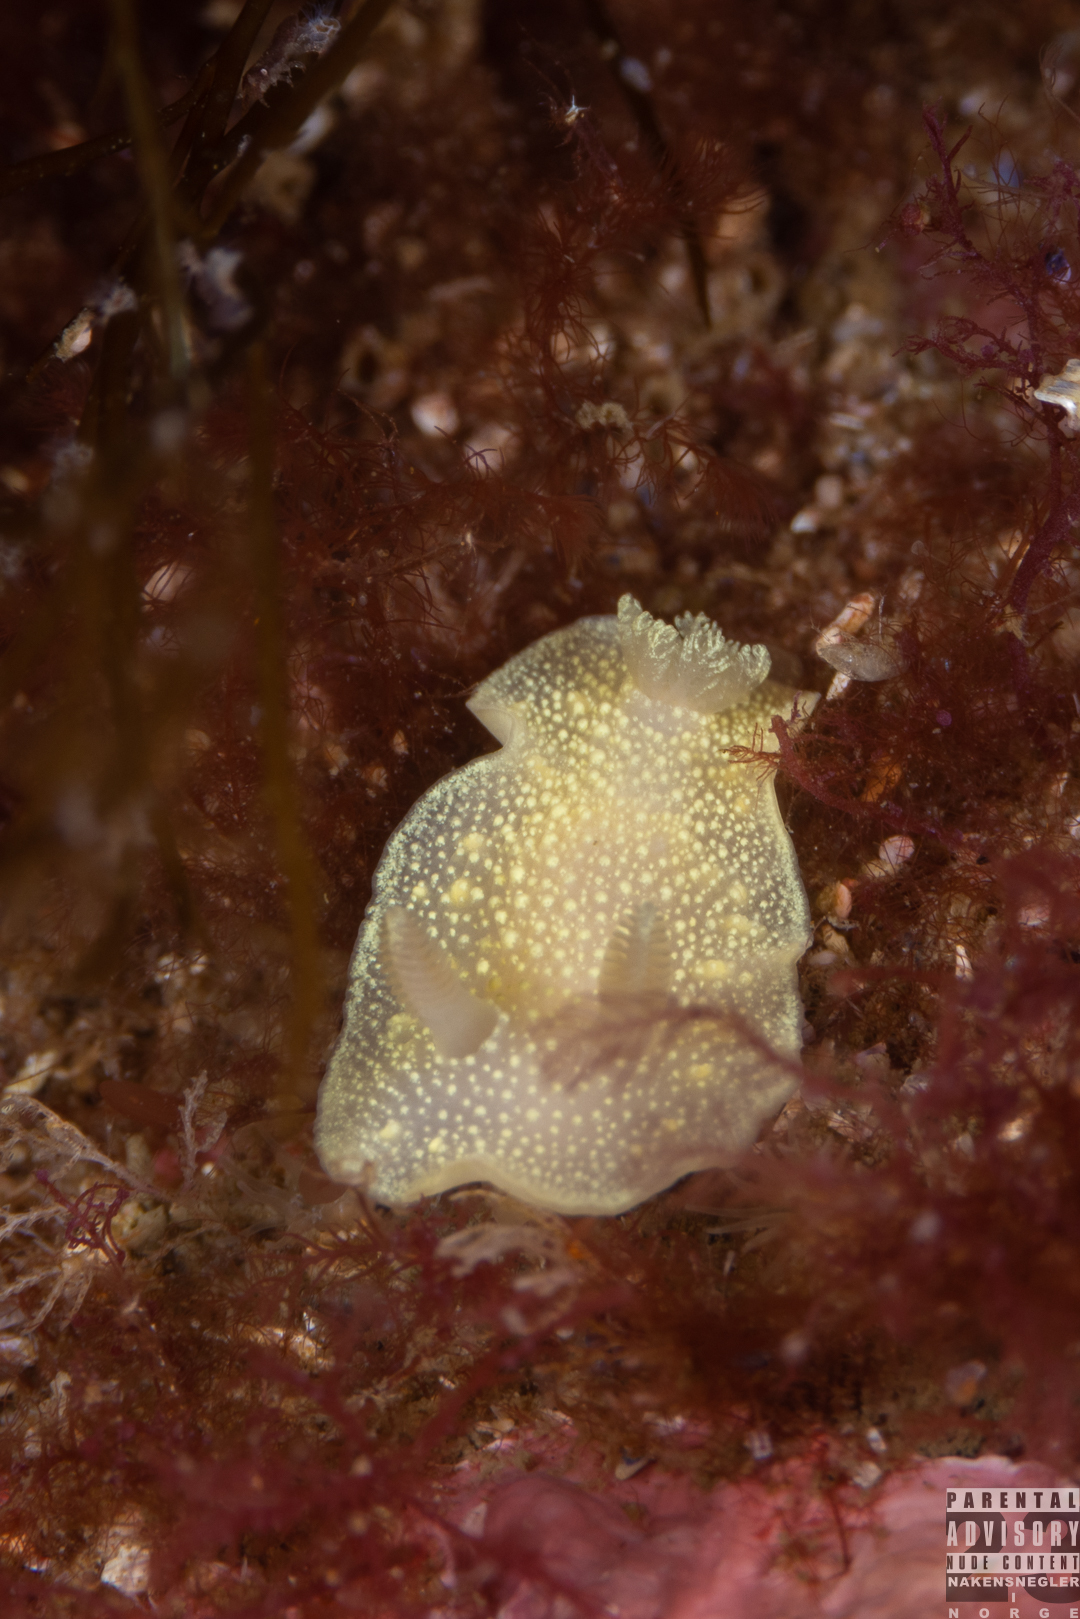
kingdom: Animalia
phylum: Mollusca
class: Gastropoda
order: Nudibranchia
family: Cadlinidae
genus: Cadlina
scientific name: Cadlina laevis
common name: White atlantic cadlina
